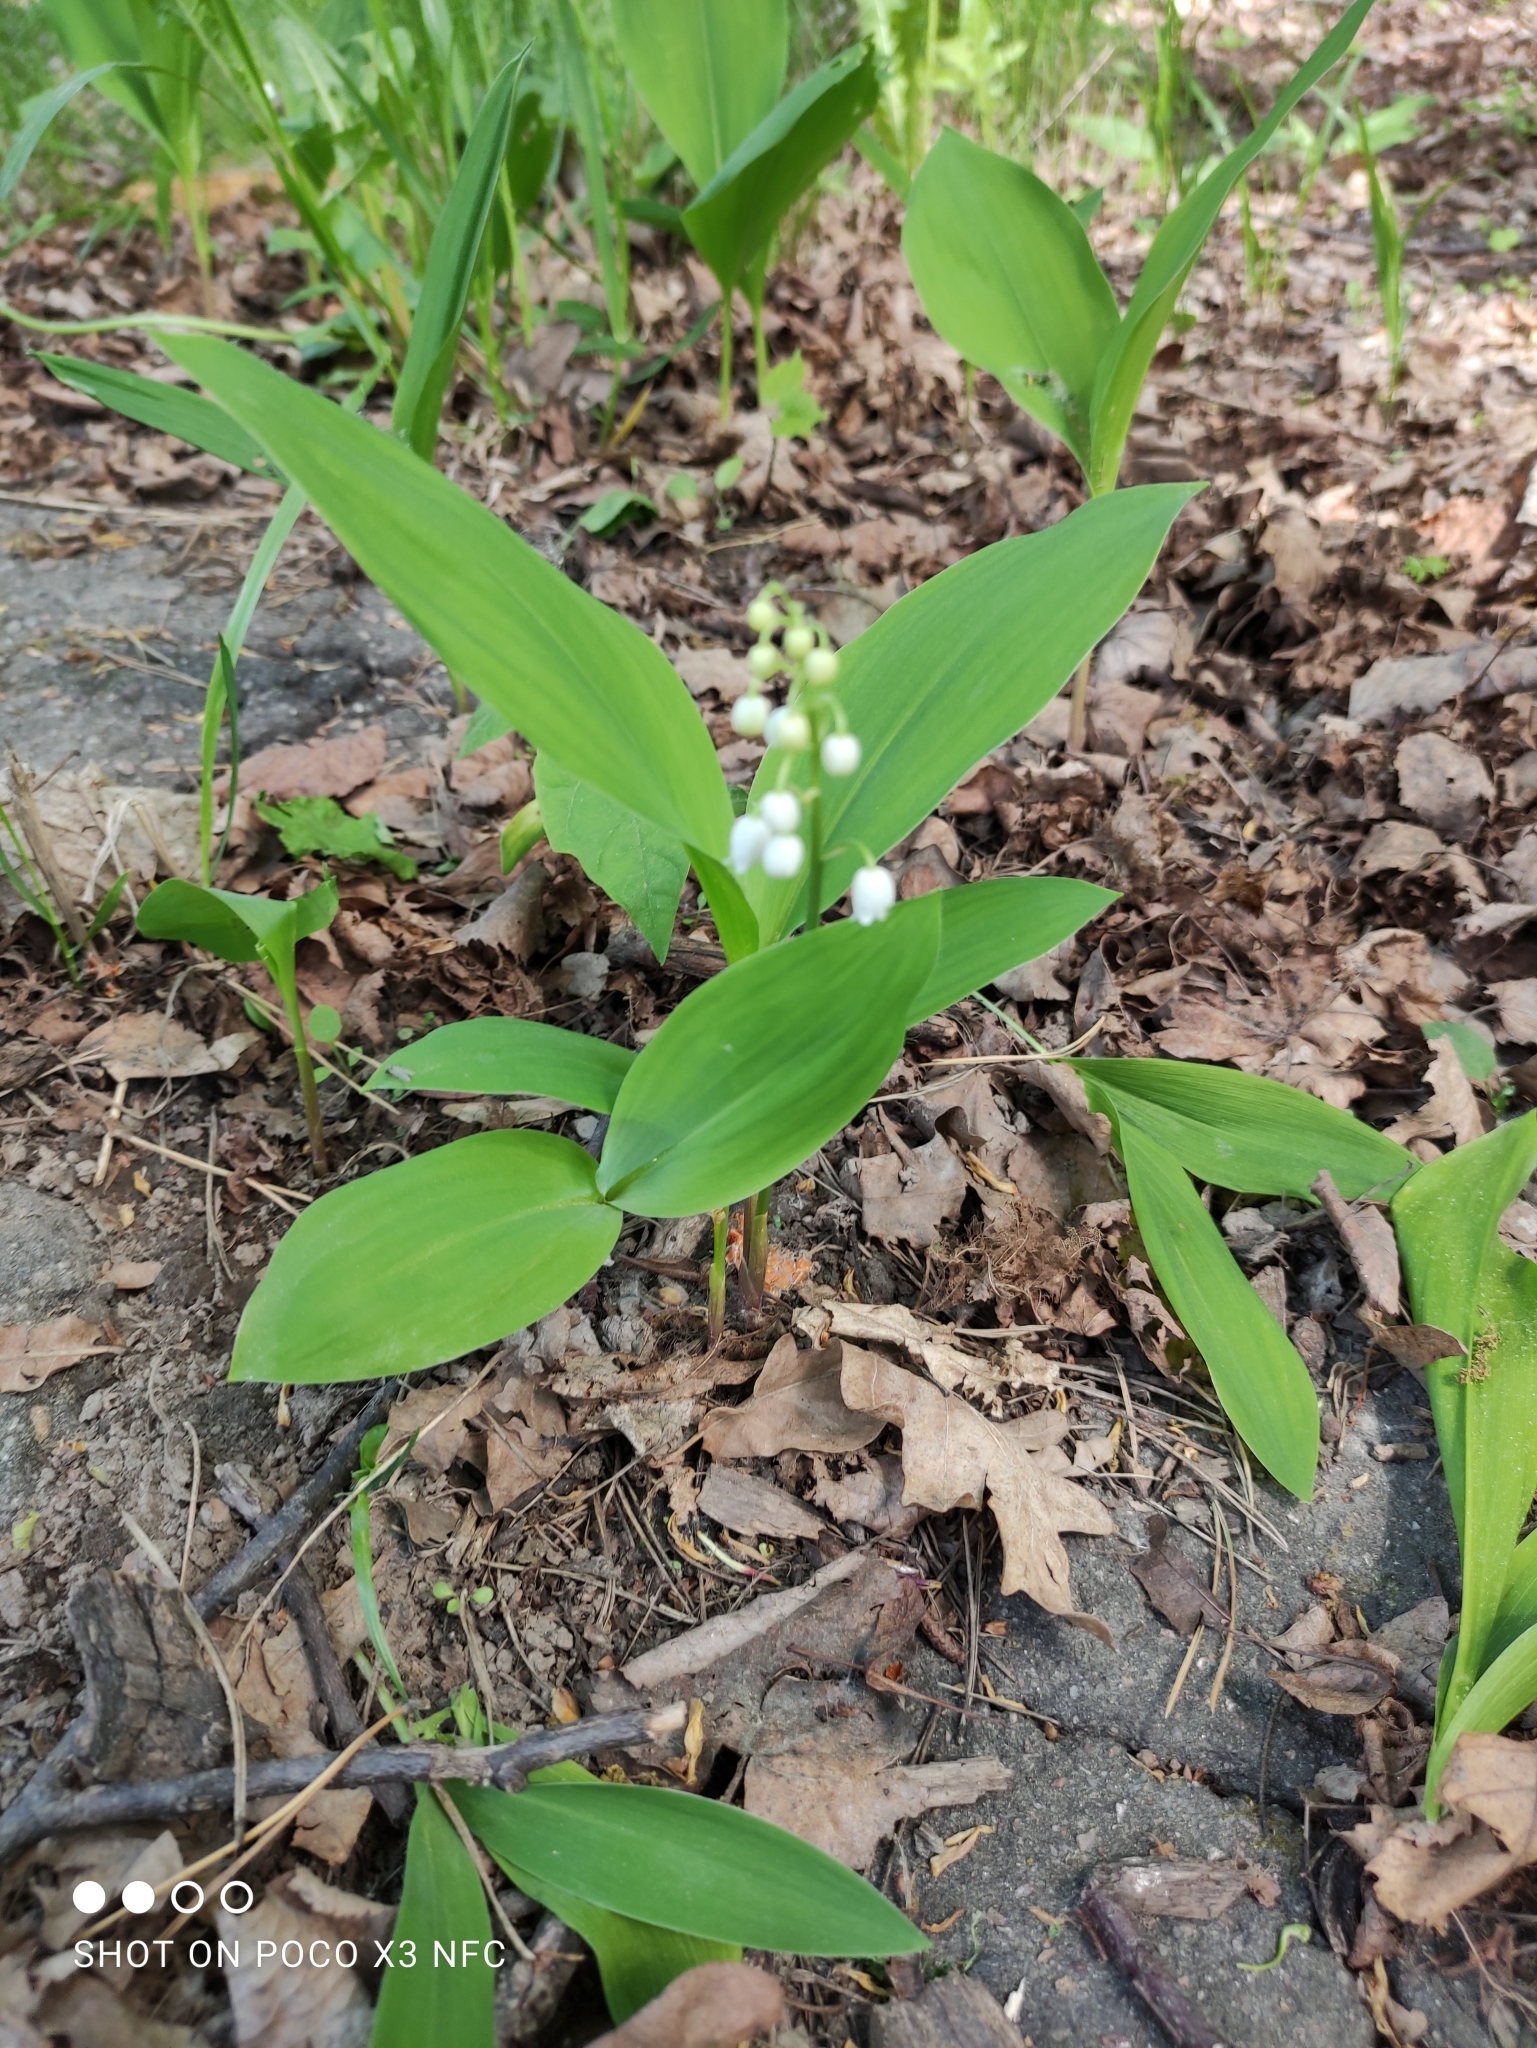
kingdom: Plantae
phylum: Tracheophyta
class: Liliopsida
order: Asparagales
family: Asparagaceae
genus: Convallaria
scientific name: Convallaria majalis
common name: Lily-of-the-valley
